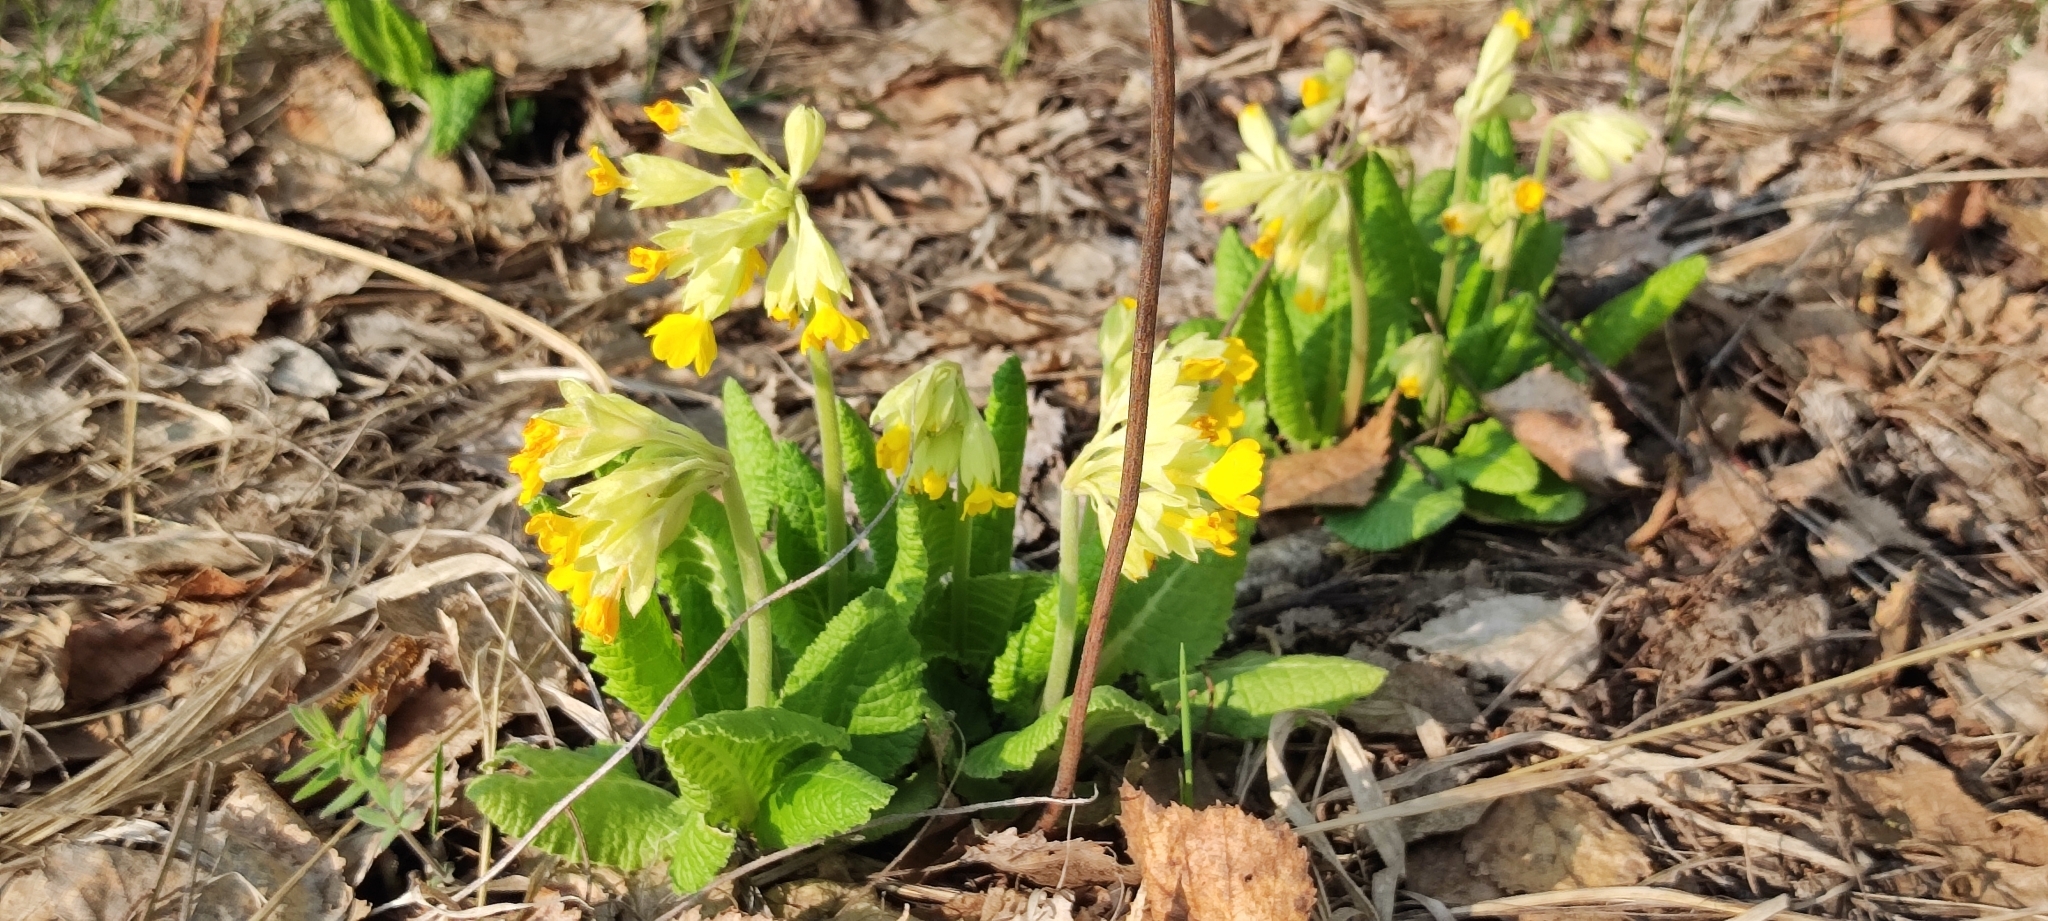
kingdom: Plantae
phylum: Tracheophyta
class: Magnoliopsida
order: Ericales
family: Primulaceae
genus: Primula
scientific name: Primula veris
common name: Cowslip
